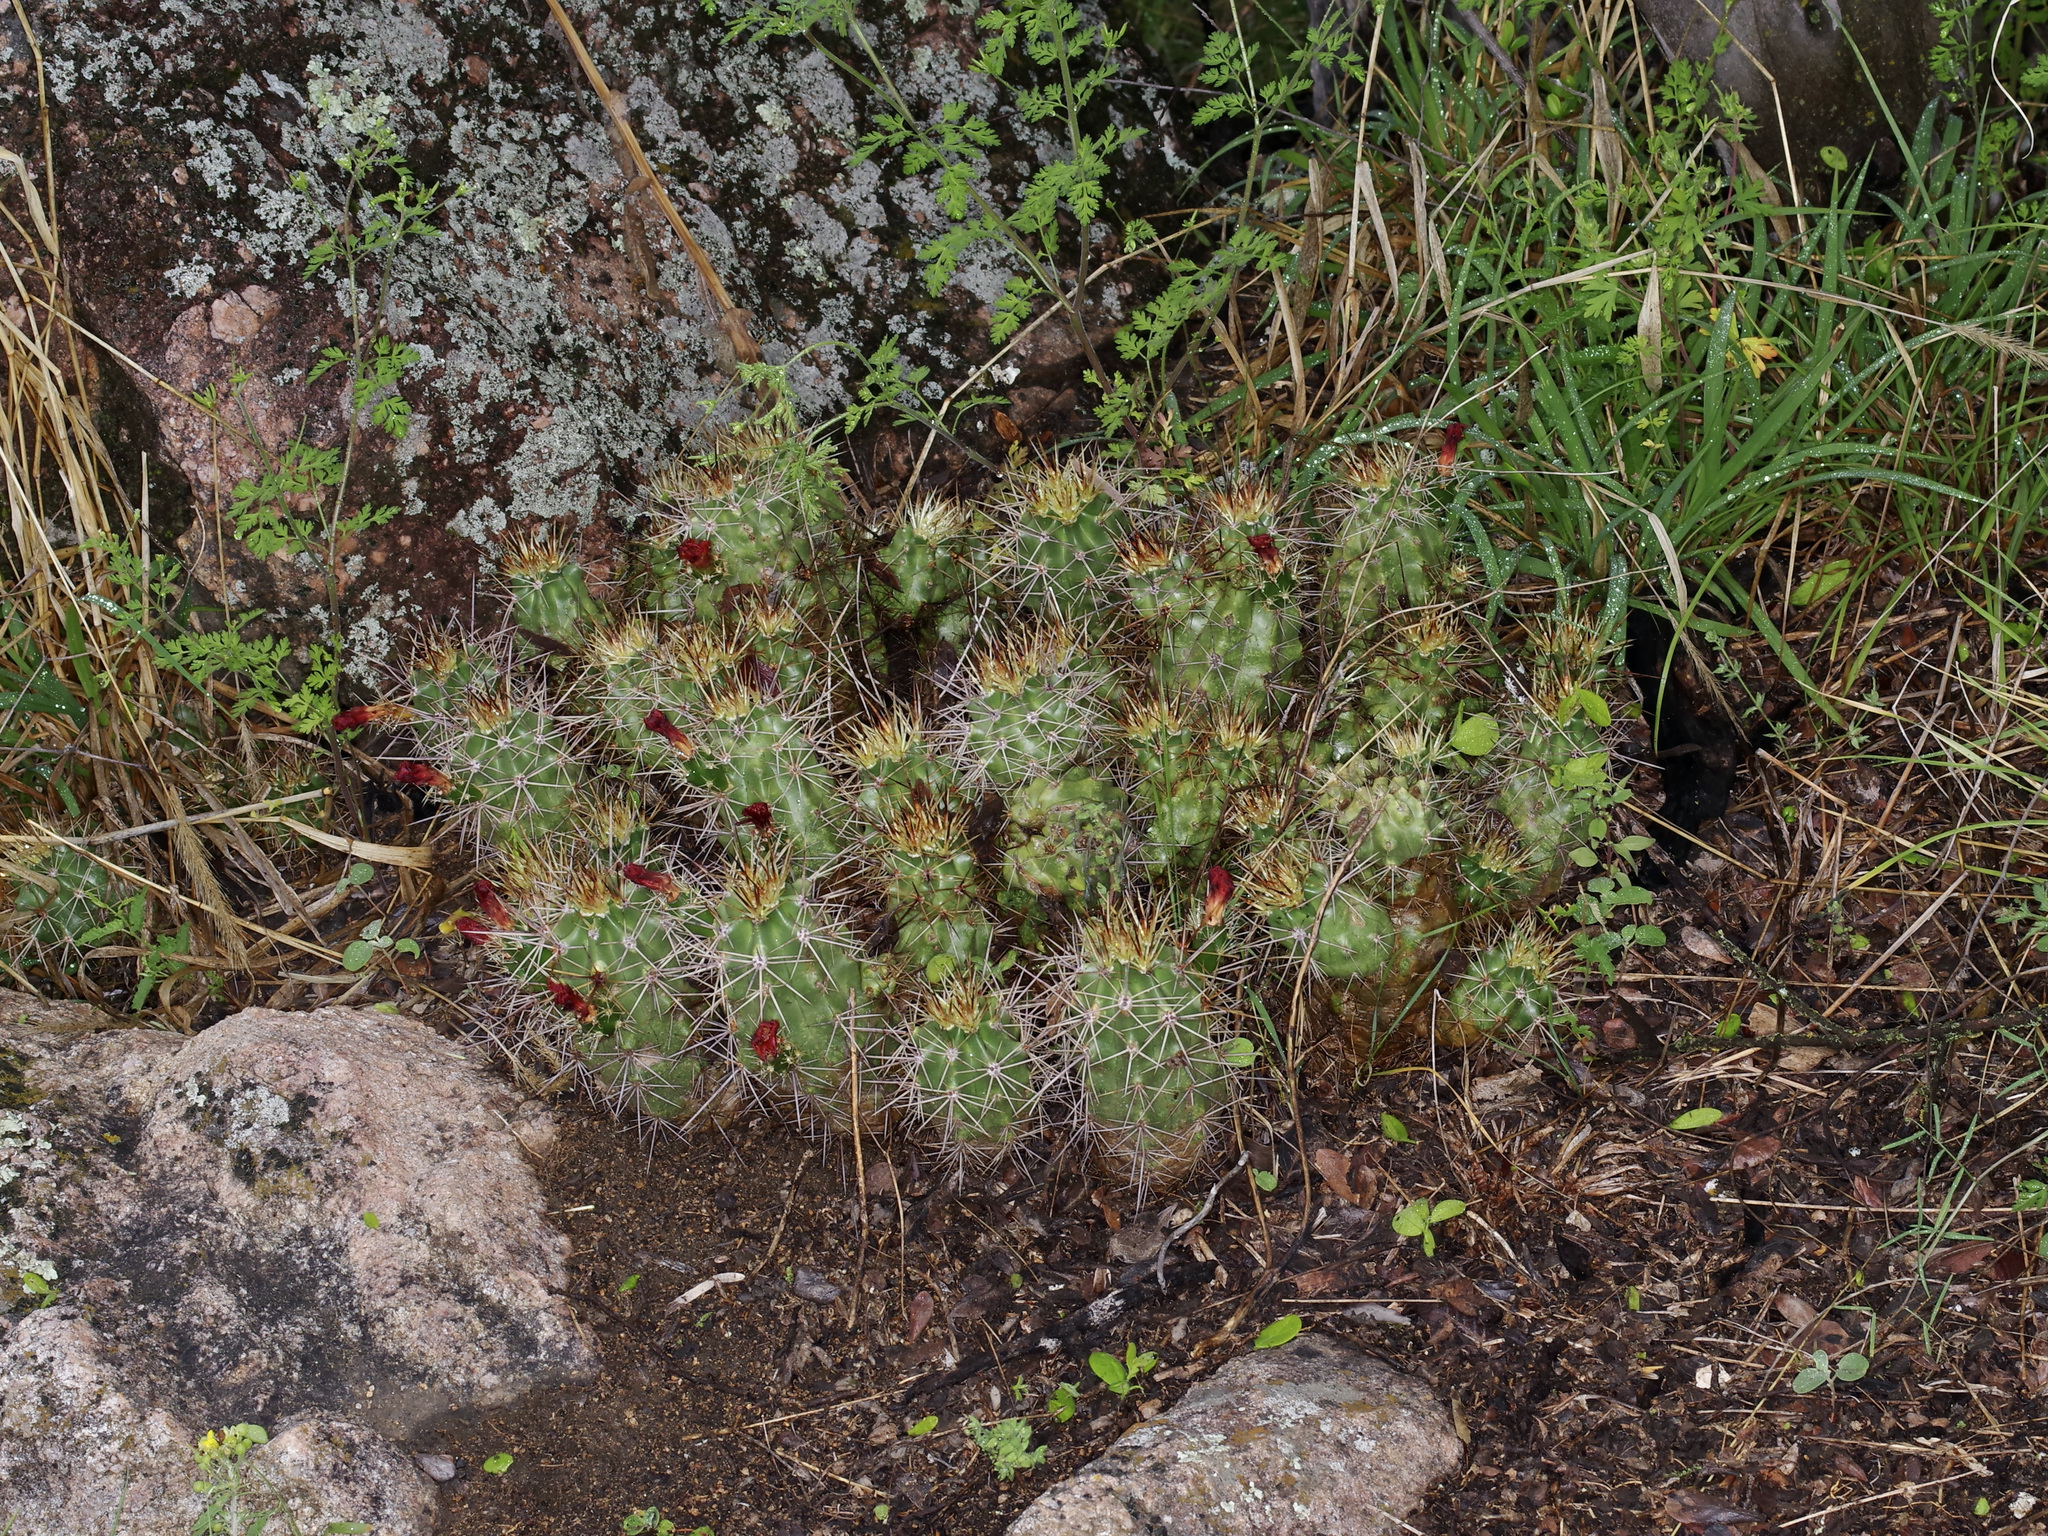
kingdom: Plantae
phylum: Tracheophyta
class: Magnoliopsida
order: Caryophyllales
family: Cactaceae
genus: Echinocereus
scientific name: Echinocereus coccineus
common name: Scarlet hedgehog cactus
